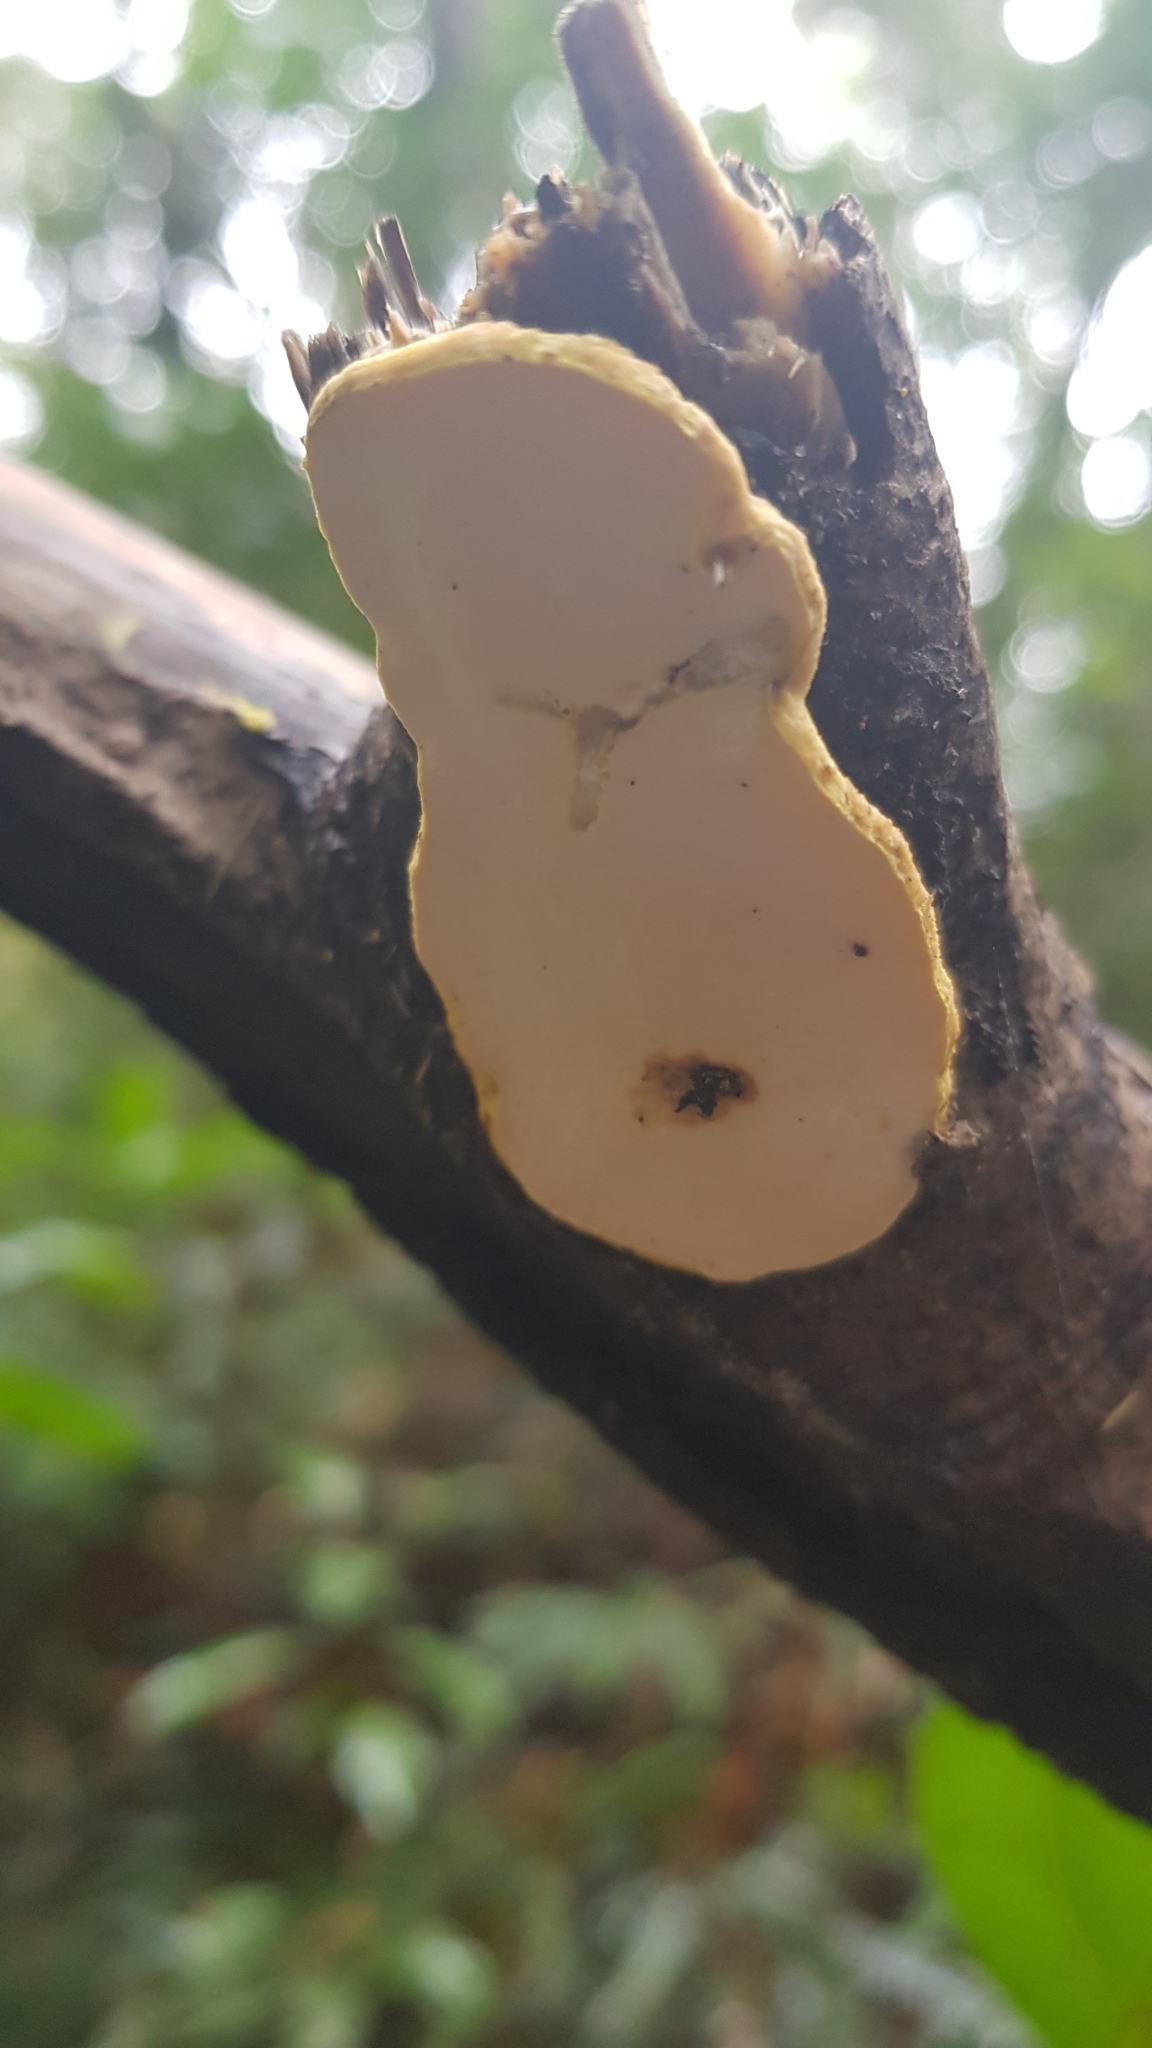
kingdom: Fungi
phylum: Basidiomycota
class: Agaricomycetes
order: Polyporales
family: Steccherinaceae
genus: Austeria
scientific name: Austeria citrea
